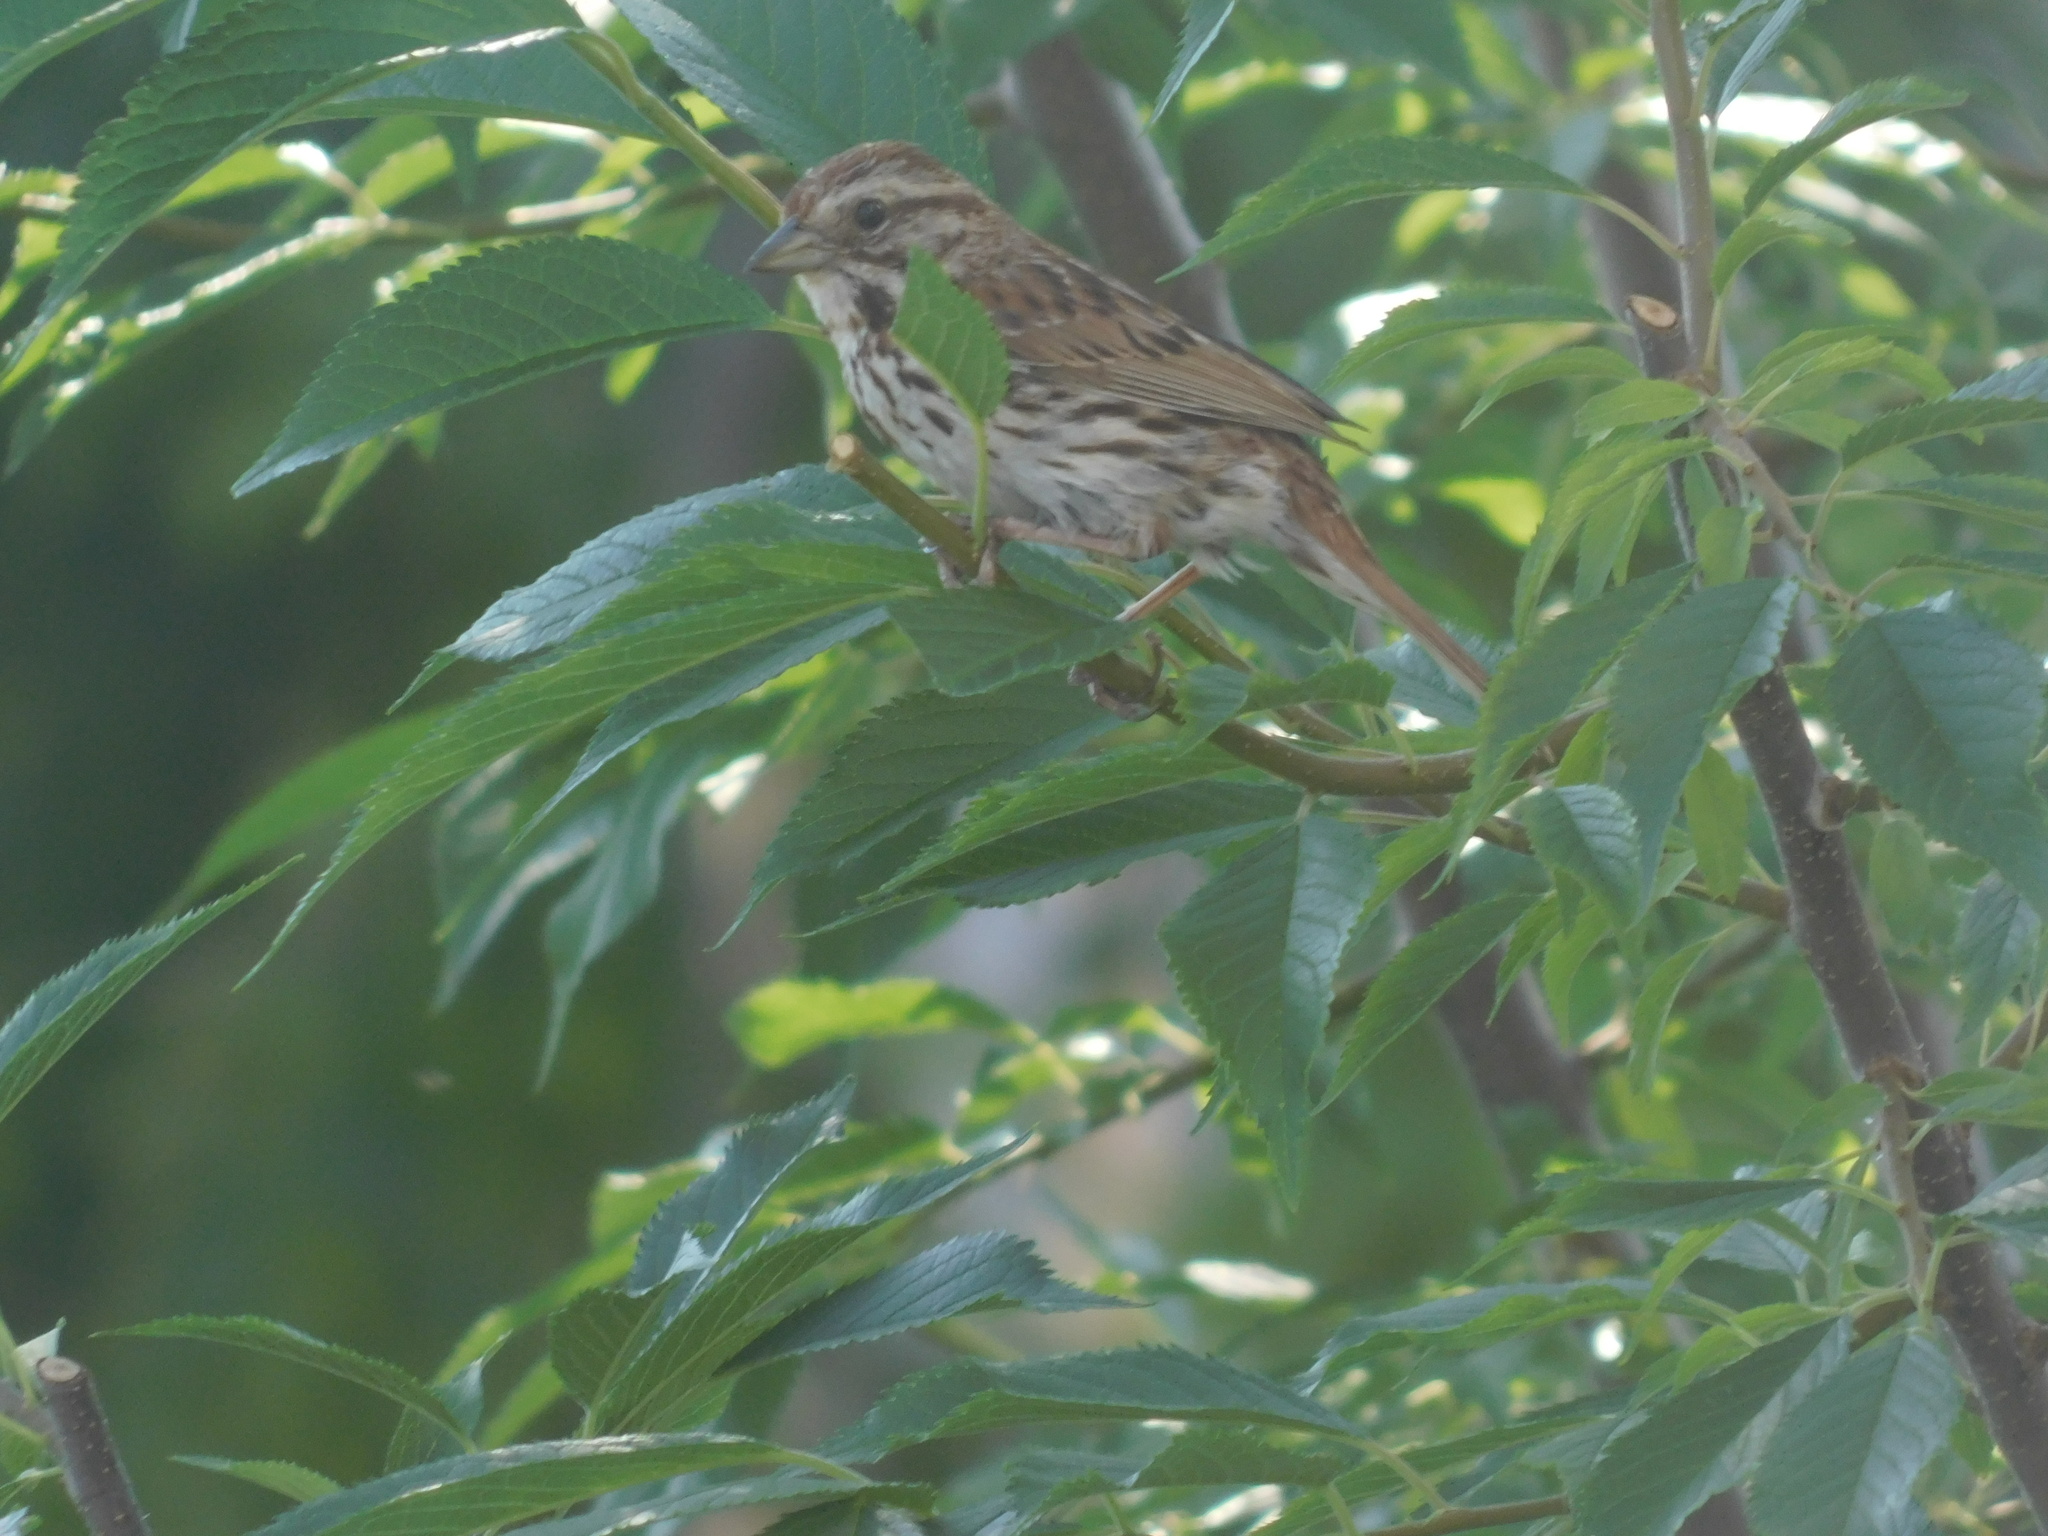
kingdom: Animalia
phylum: Chordata
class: Aves
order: Passeriformes
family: Passerellidae
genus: Melospiza
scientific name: Melospiza melodia
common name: Song sparrow
